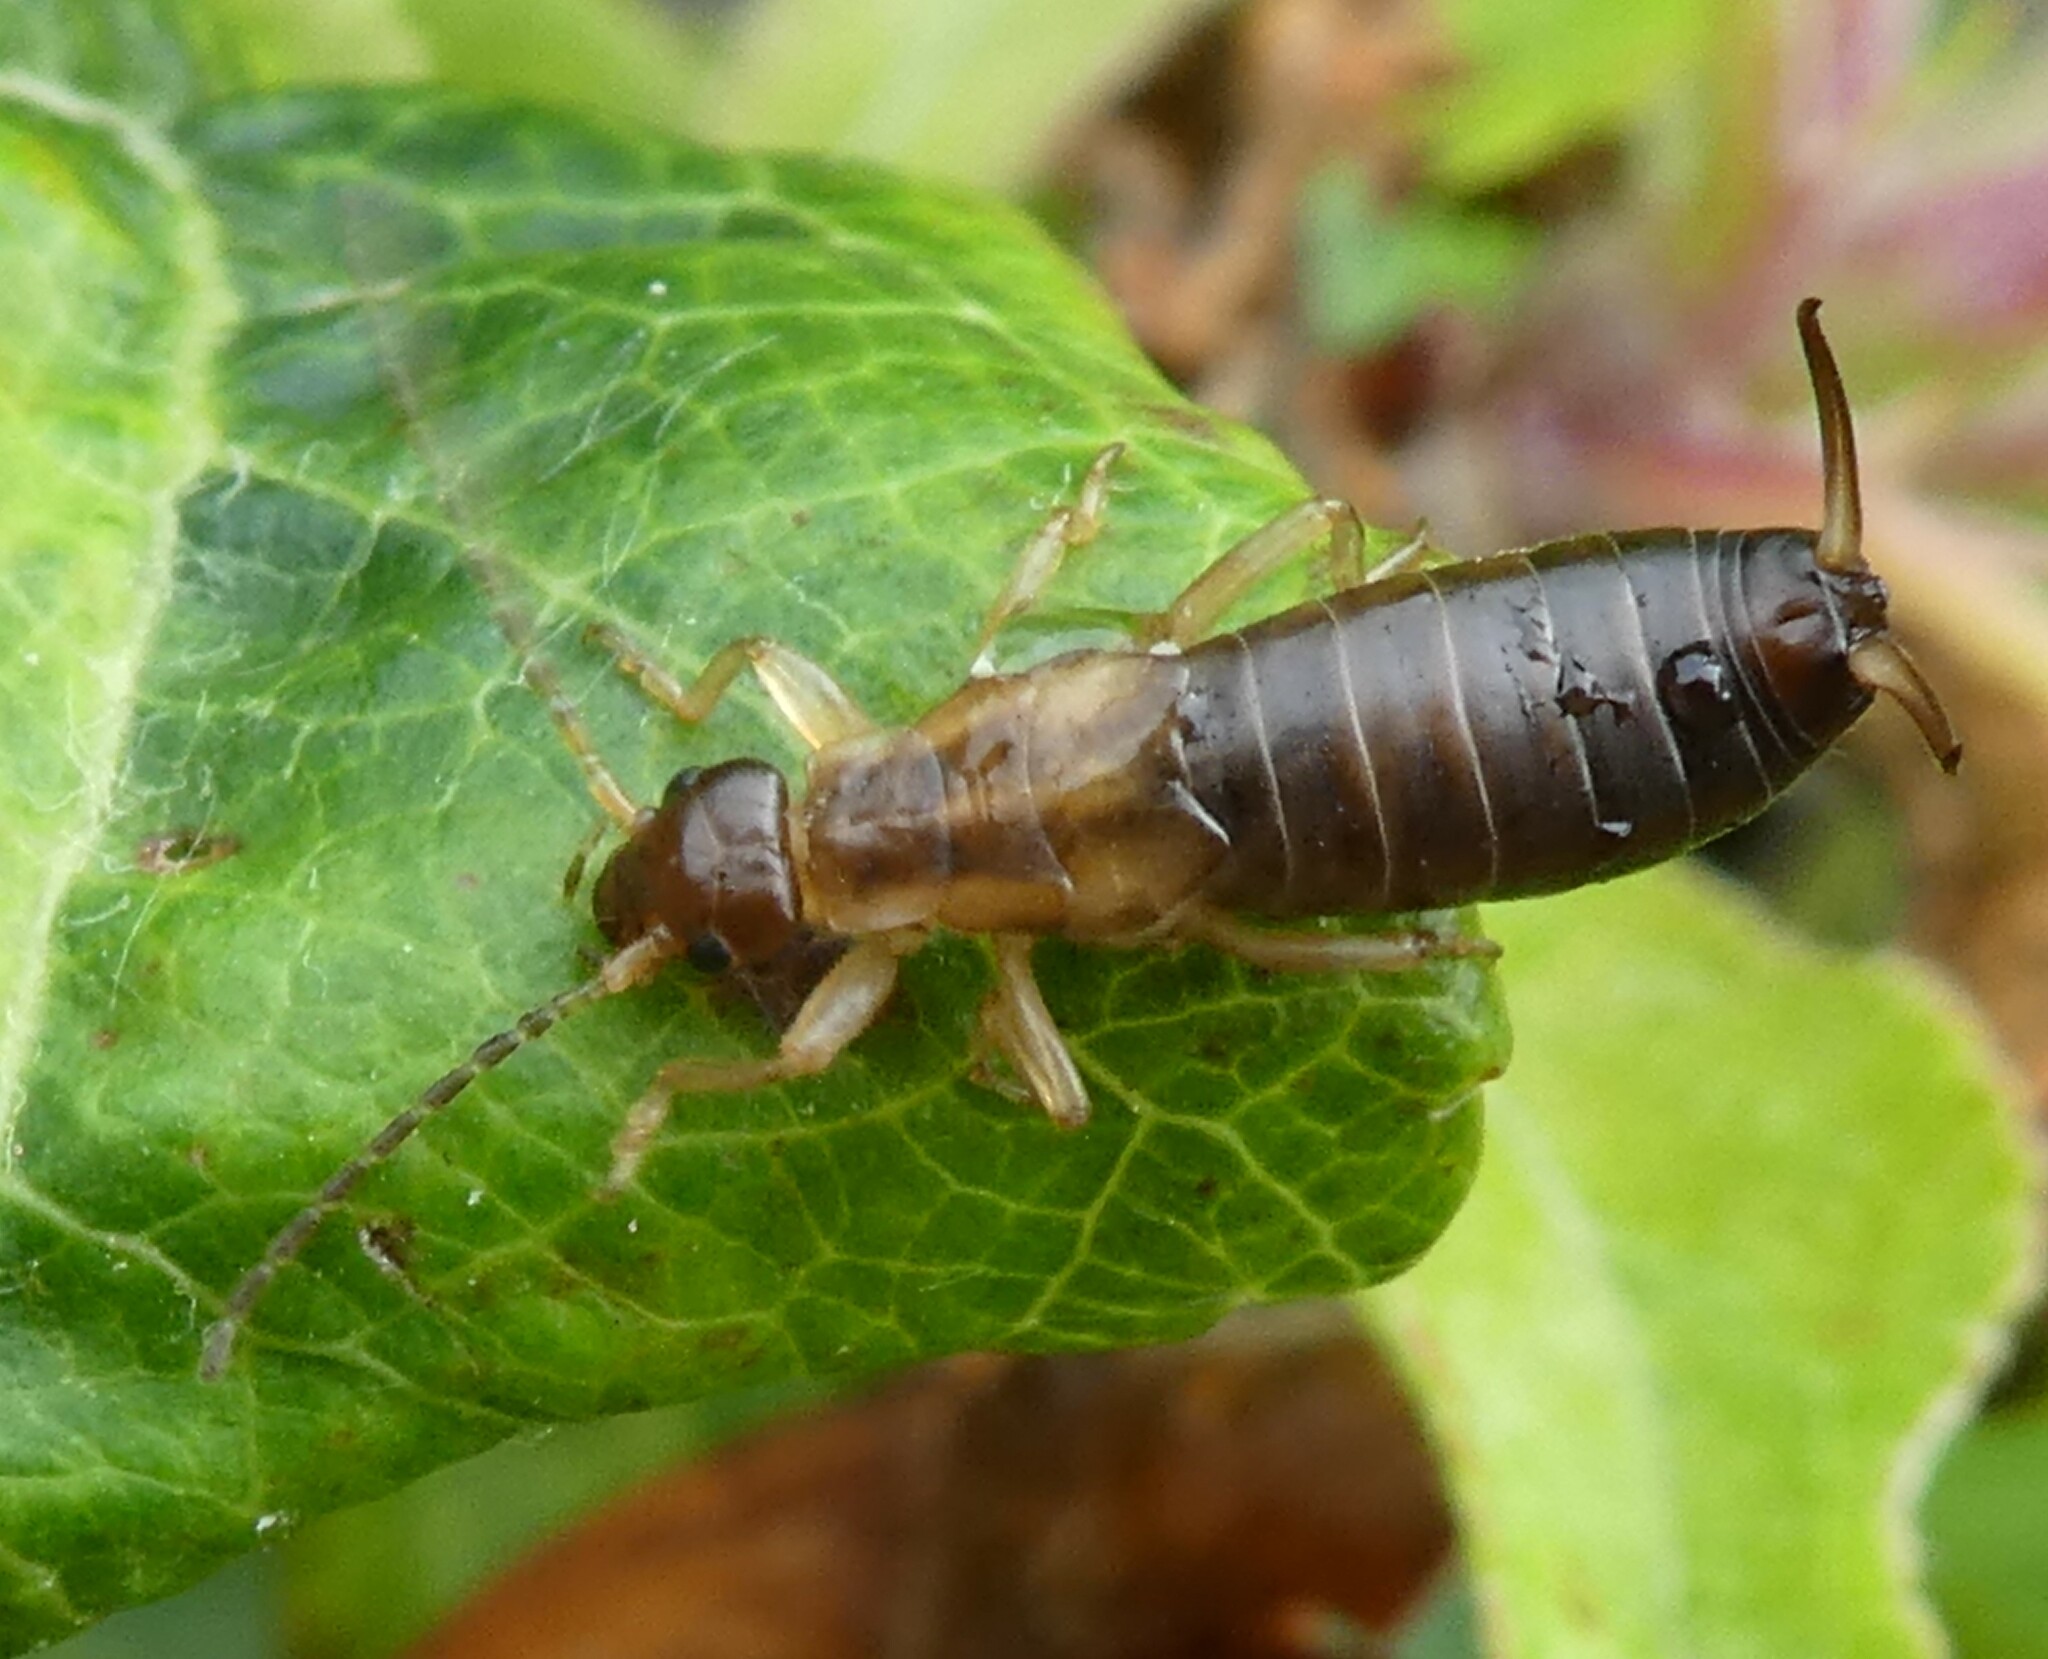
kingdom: Animalia
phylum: Arthropoda
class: Insecta
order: Dermaptera
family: Forficulidae
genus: Forficula
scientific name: Forficula
